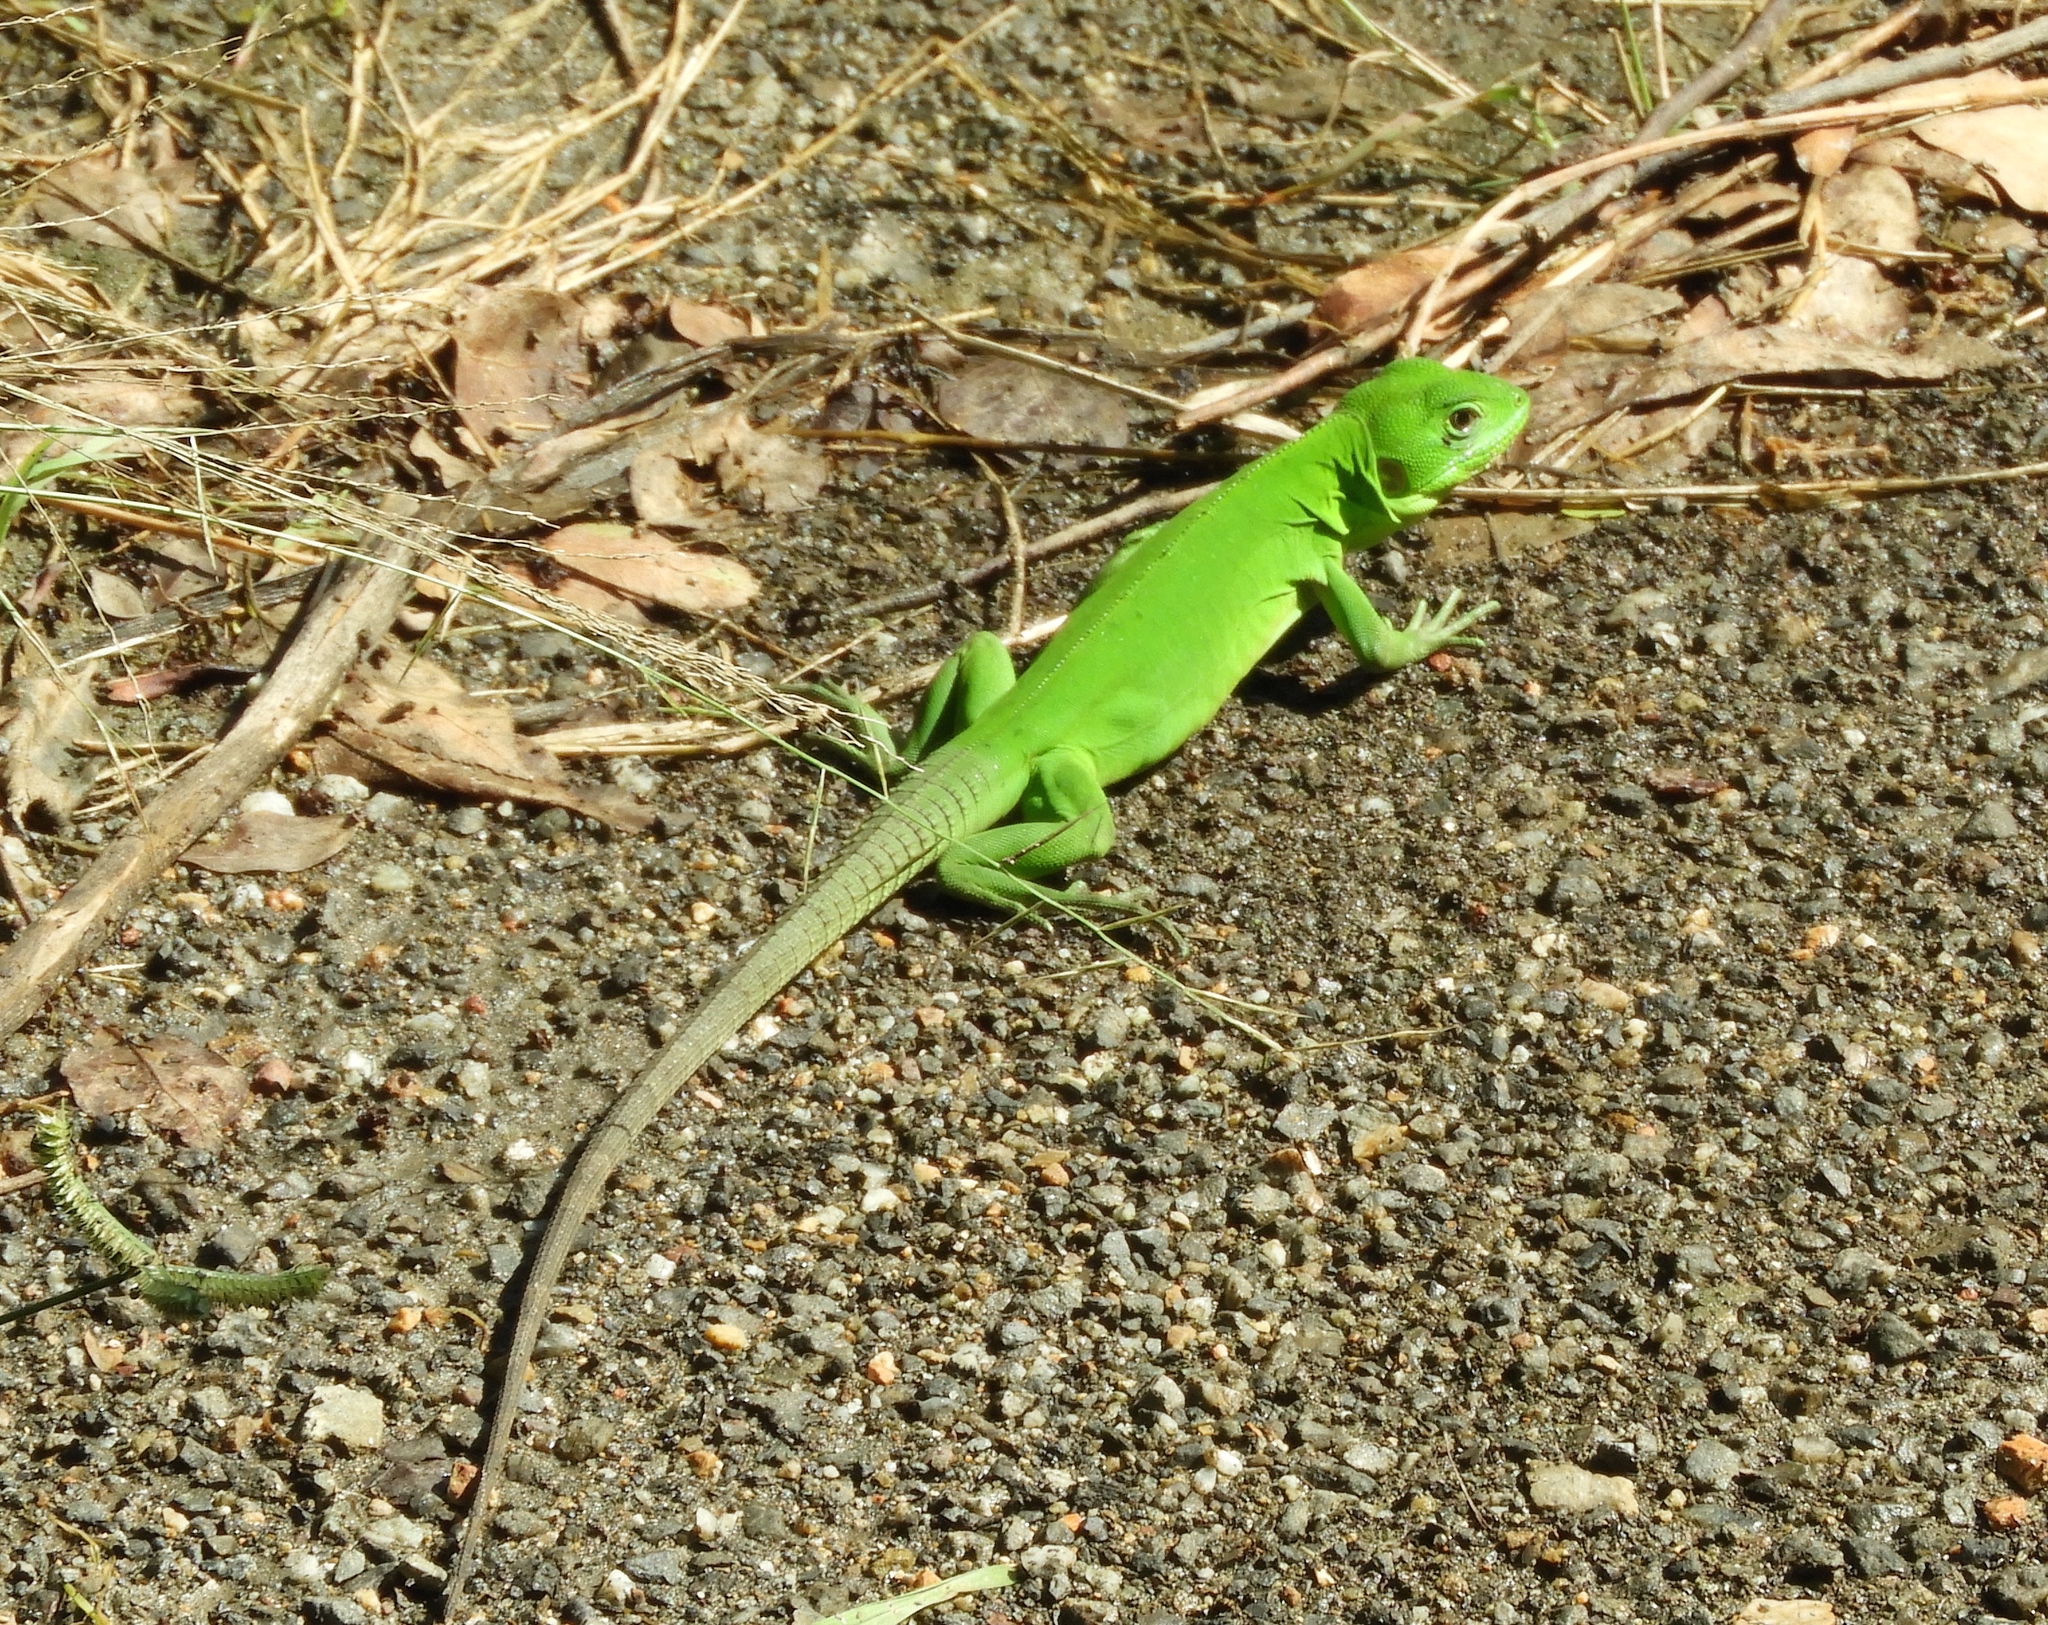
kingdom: Animalia
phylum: Chordata
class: Squamata
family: Iguanidae
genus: Ctenosaura
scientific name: Ctenosaura pectinata
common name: Guerreran spiny-tailed iguana
